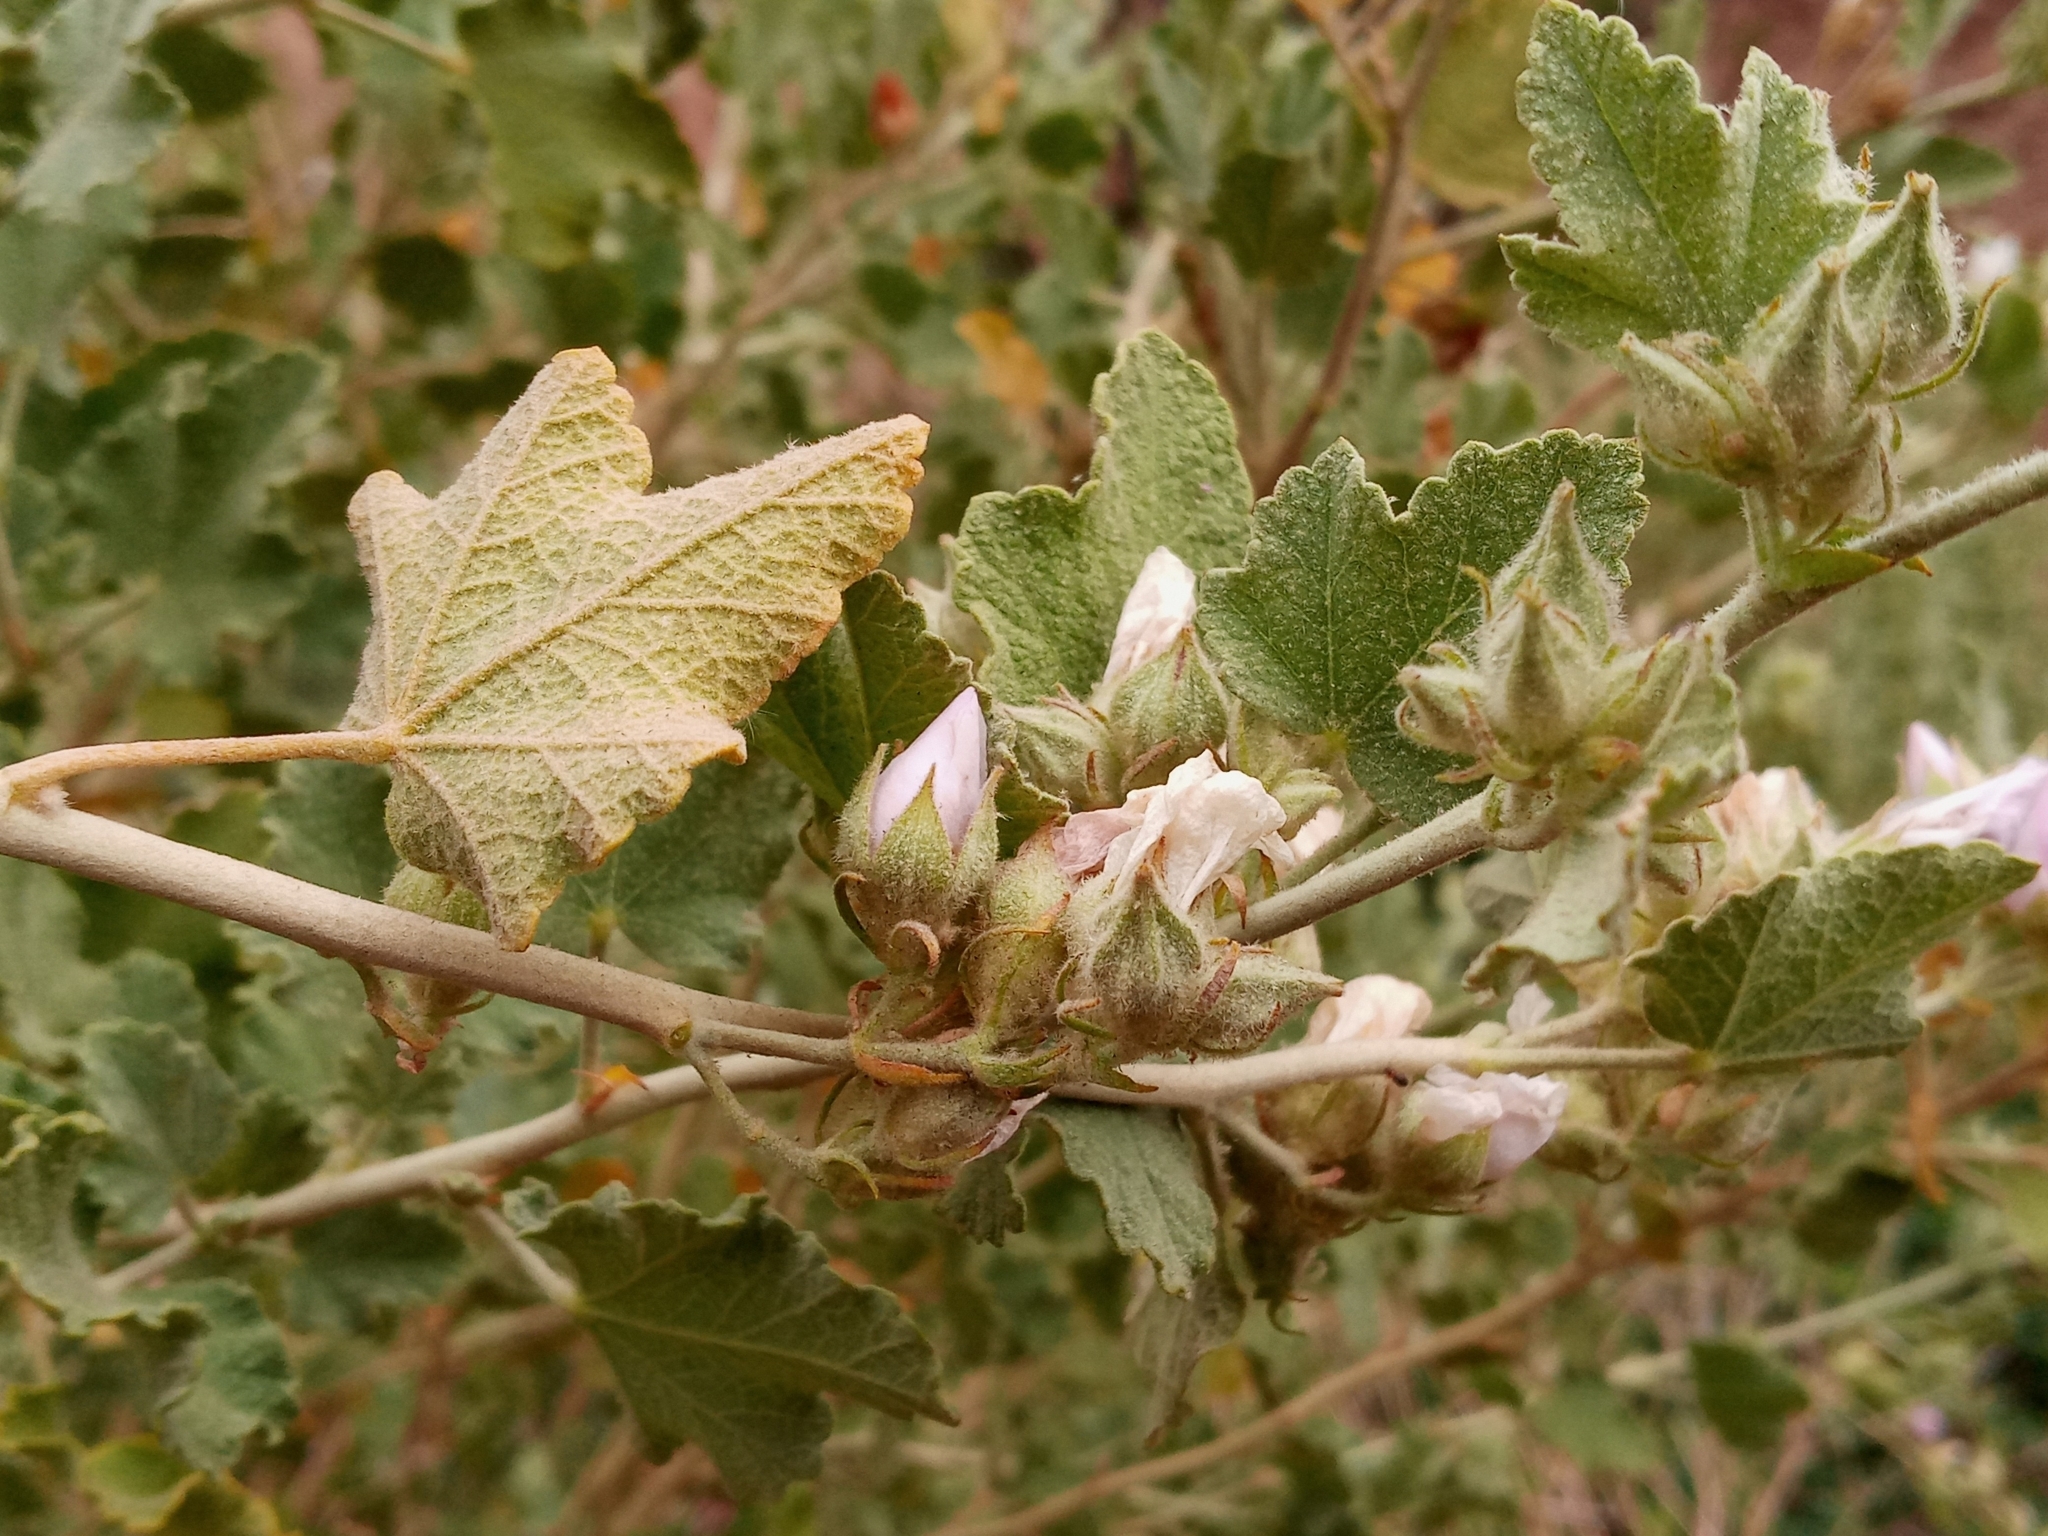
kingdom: Plantae
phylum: Tracheophyta
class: Magnoliopsida
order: Malvales
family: Malvaceae
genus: Malacothamnus
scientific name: Malacothamnus marrubioides
